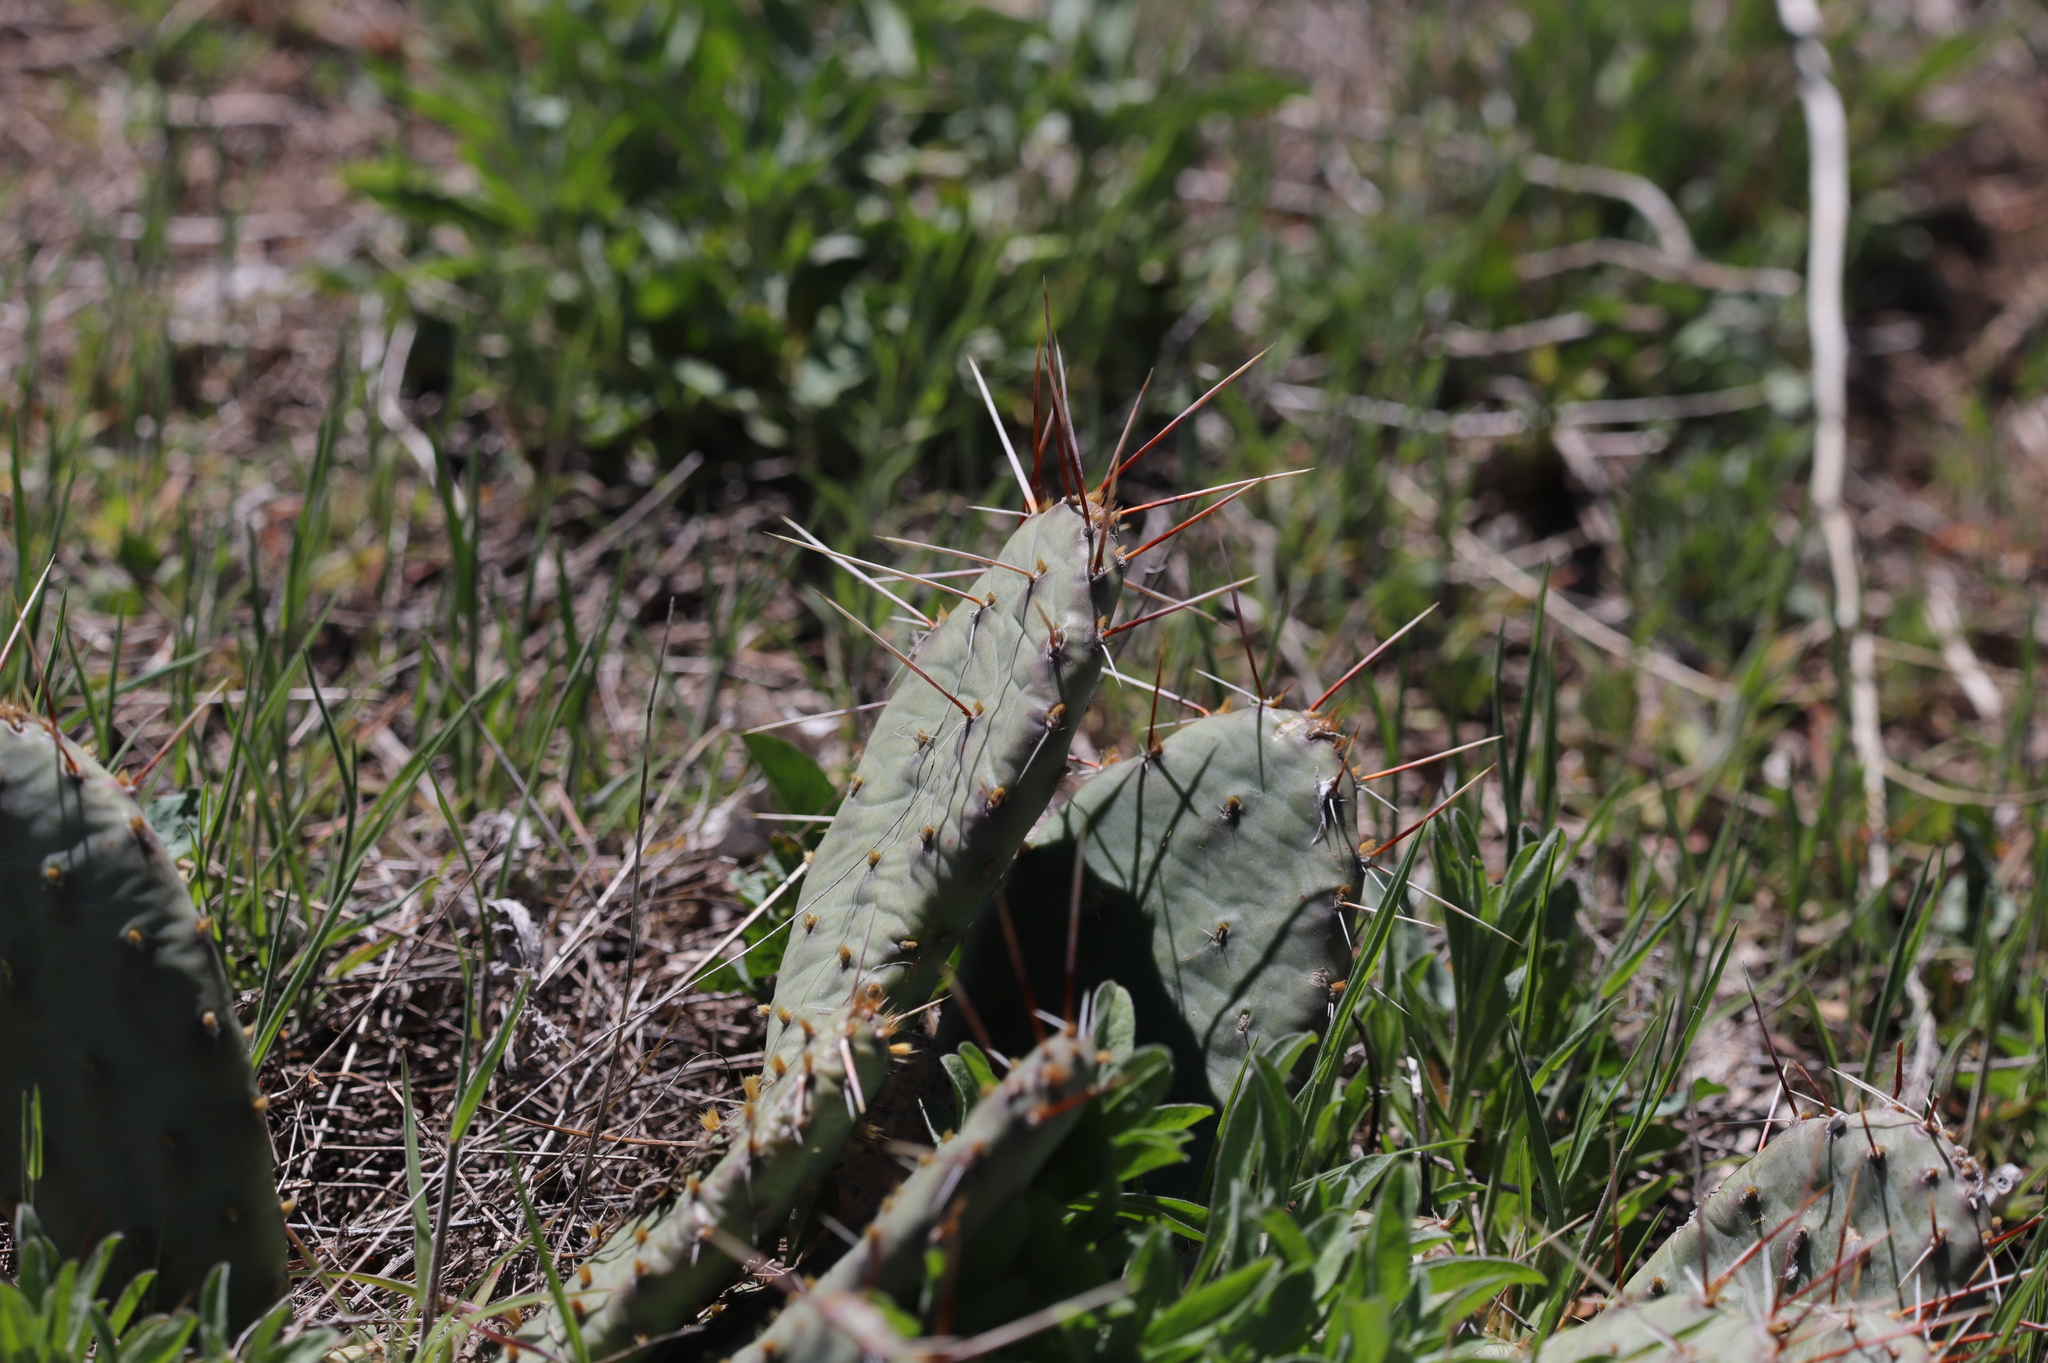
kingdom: Plantae
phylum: Tracheophyta
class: Magnoliopsida
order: Caryophyllales
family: Cactaceae
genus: Opuntia
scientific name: Opuntia macrorhiza
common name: Grassland pricklypear
